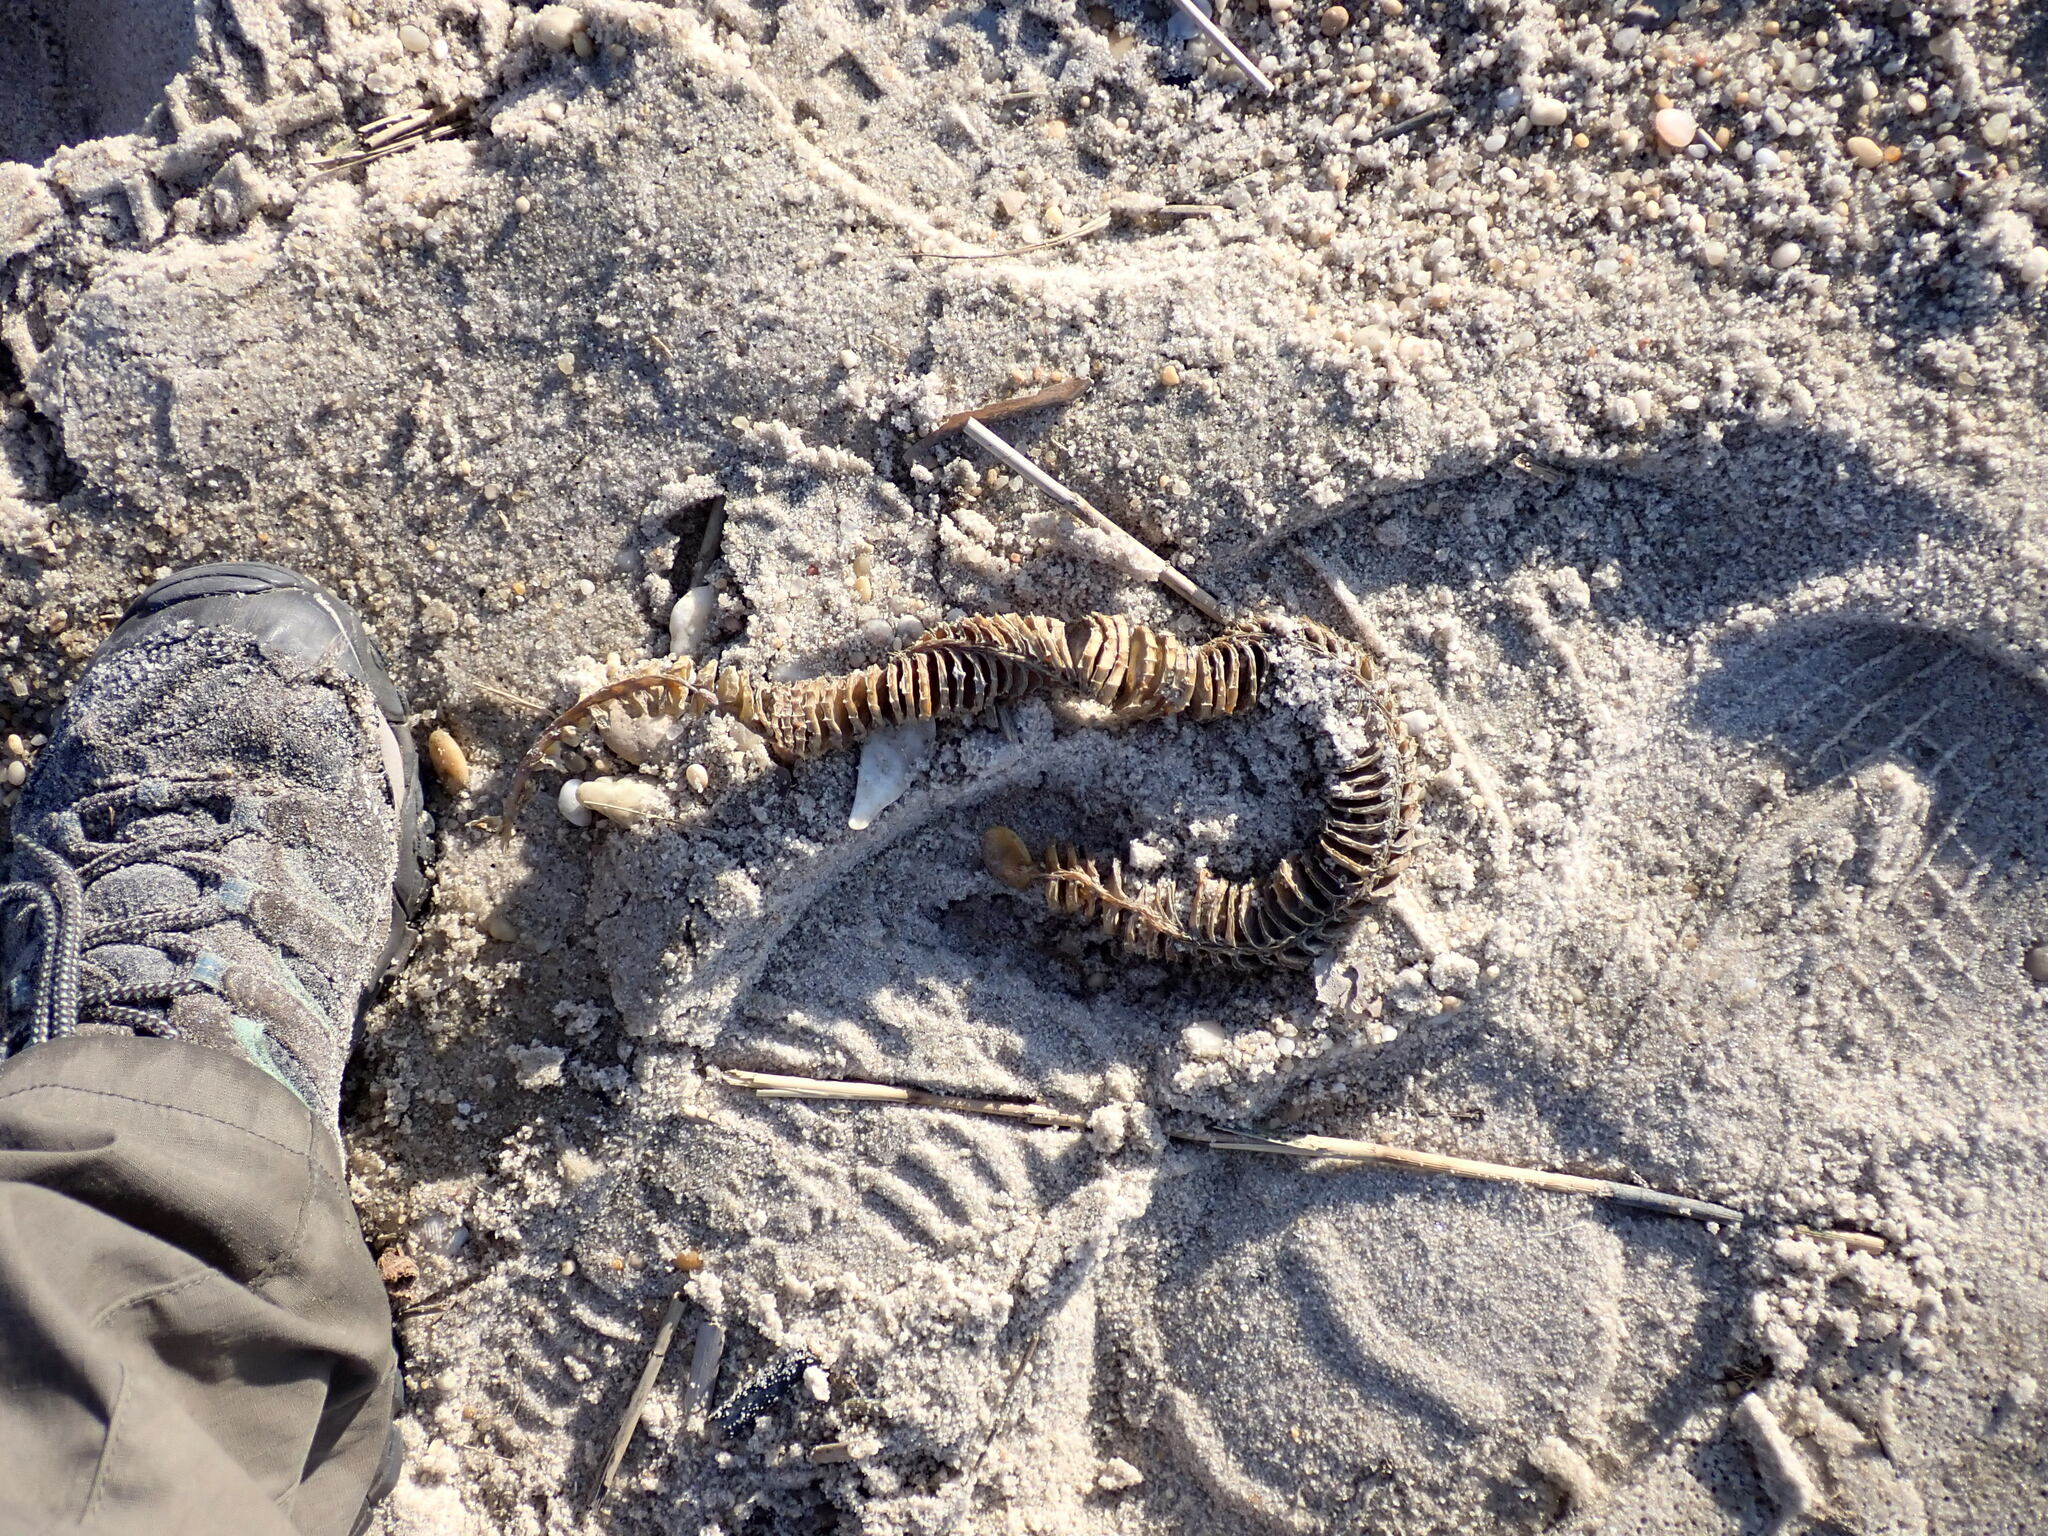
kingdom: Animalia
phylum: Mollusca
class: Gastropoda
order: Neogastropoda
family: Busyconidae
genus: Busycon
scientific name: Busycon carica
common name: Knobbed whelk
